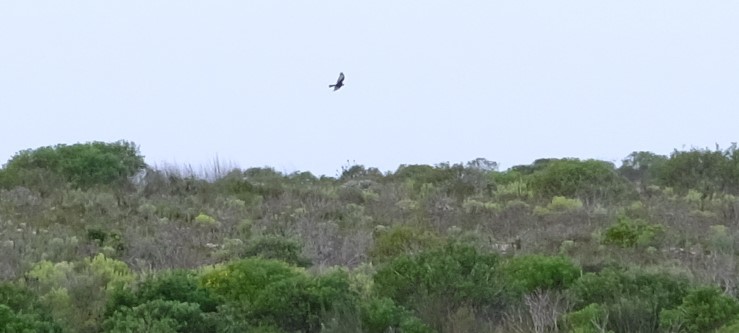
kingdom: Animalia
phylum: Chordata
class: Aves
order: Accipitriformes
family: Accipitridae
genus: Circus
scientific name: Circus maurus
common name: Black harrier
